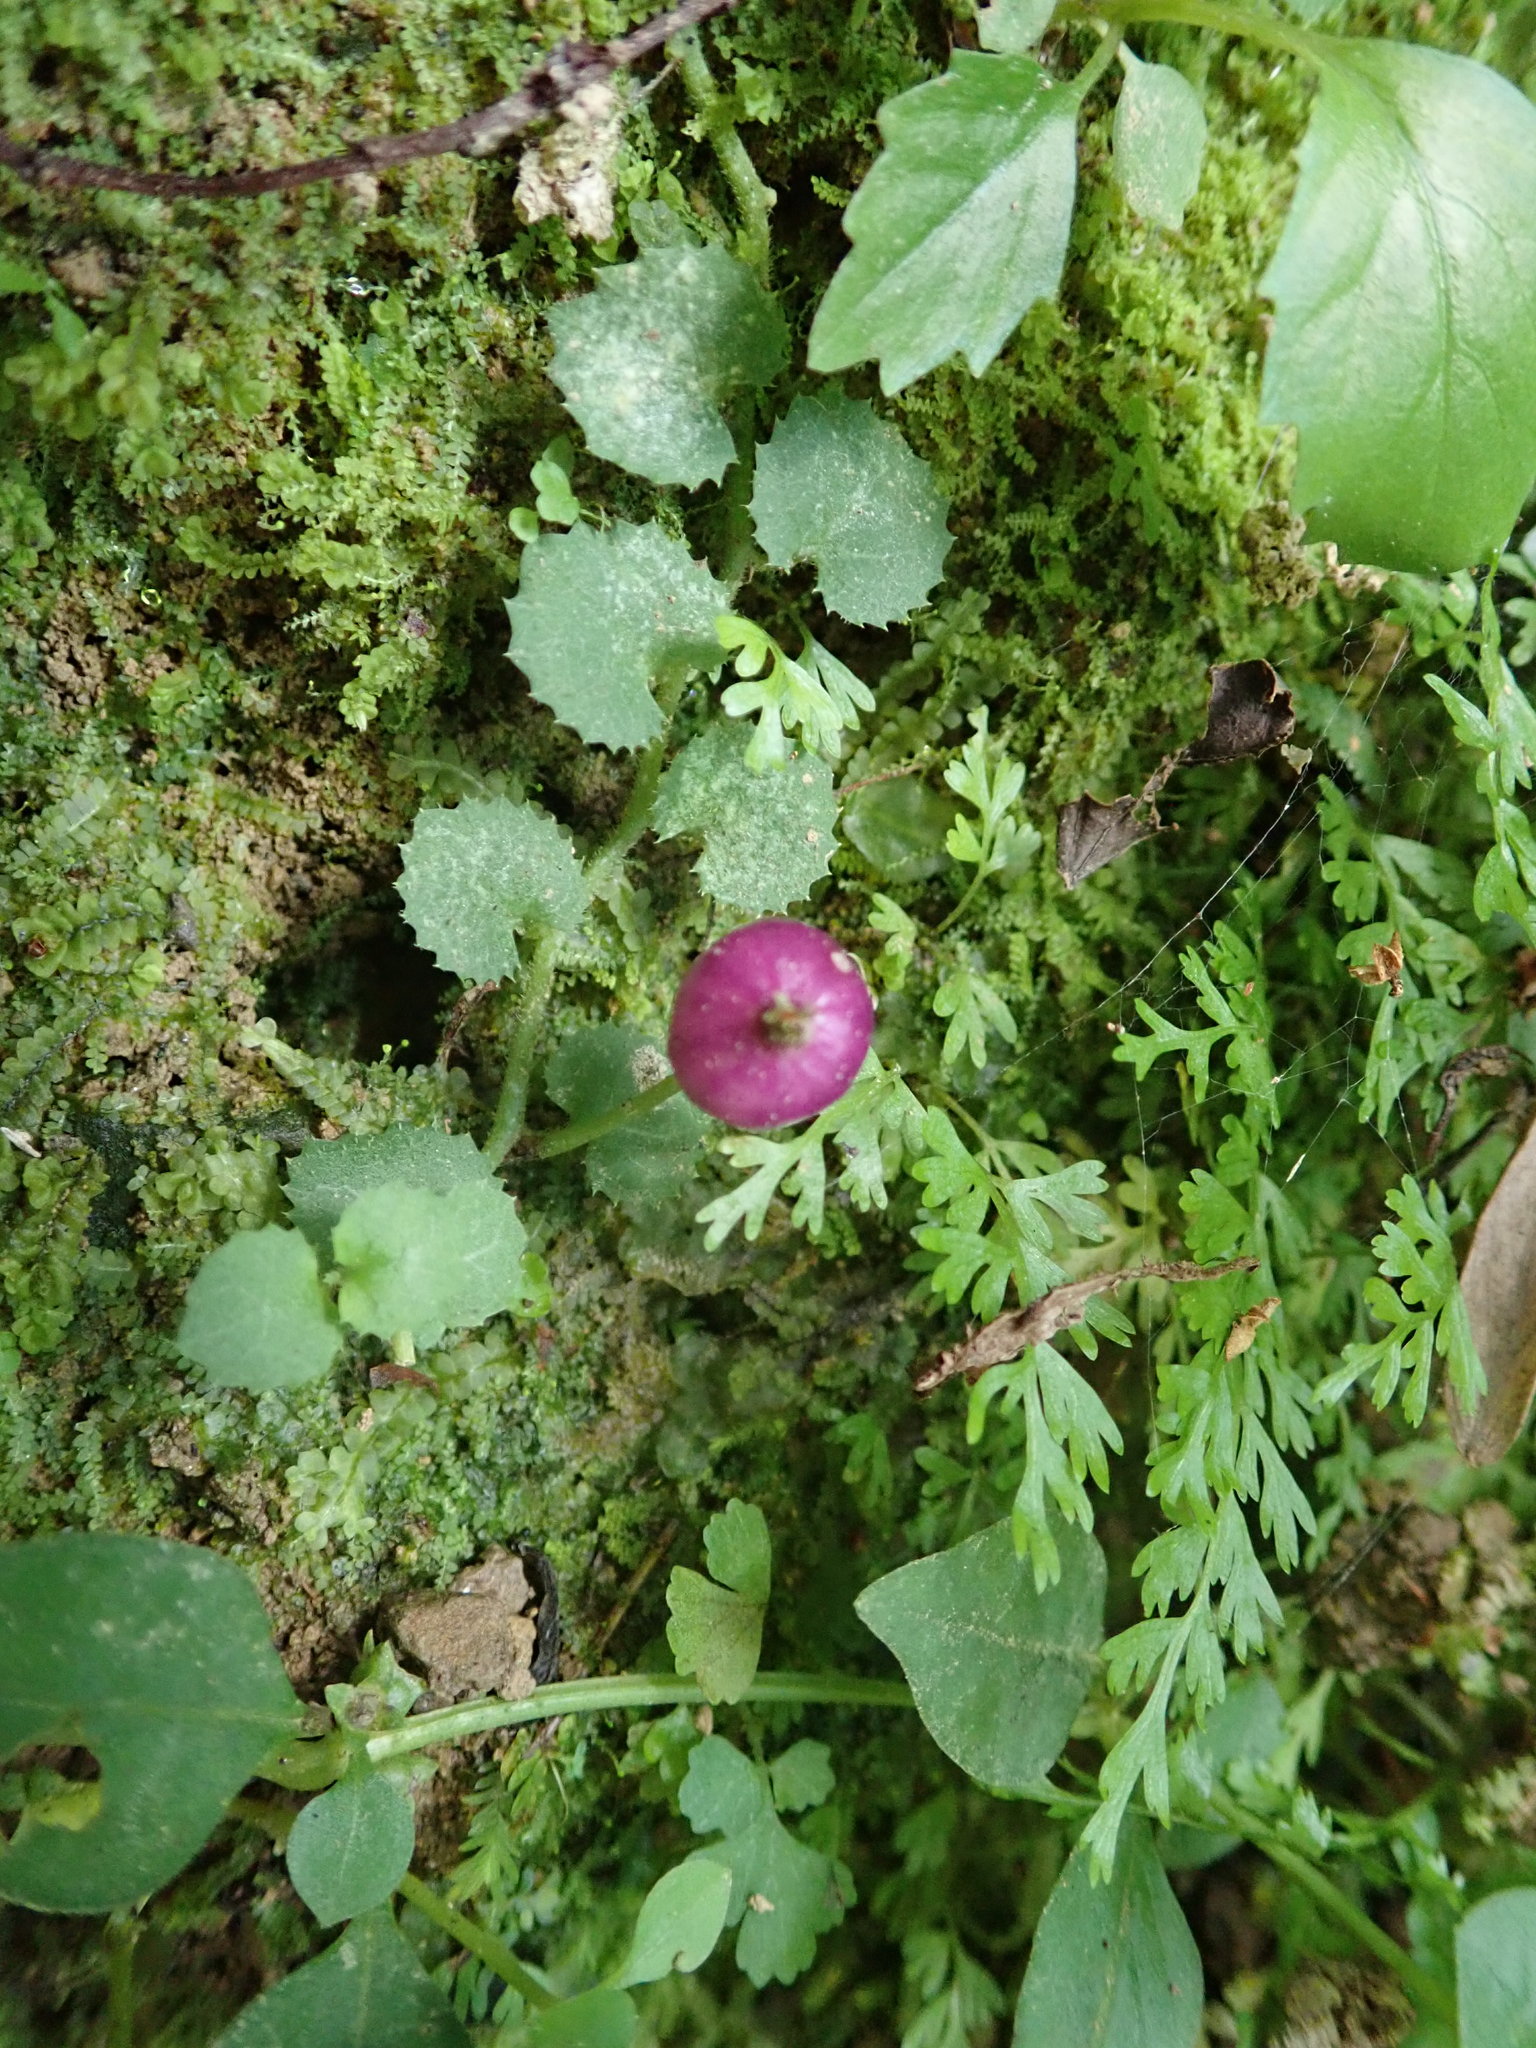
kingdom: Plantae
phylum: Tracheophyta
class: Magnoliopsida
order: Asterales
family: Campanulaceae
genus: Lobelia
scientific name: Lobelia nummularia
